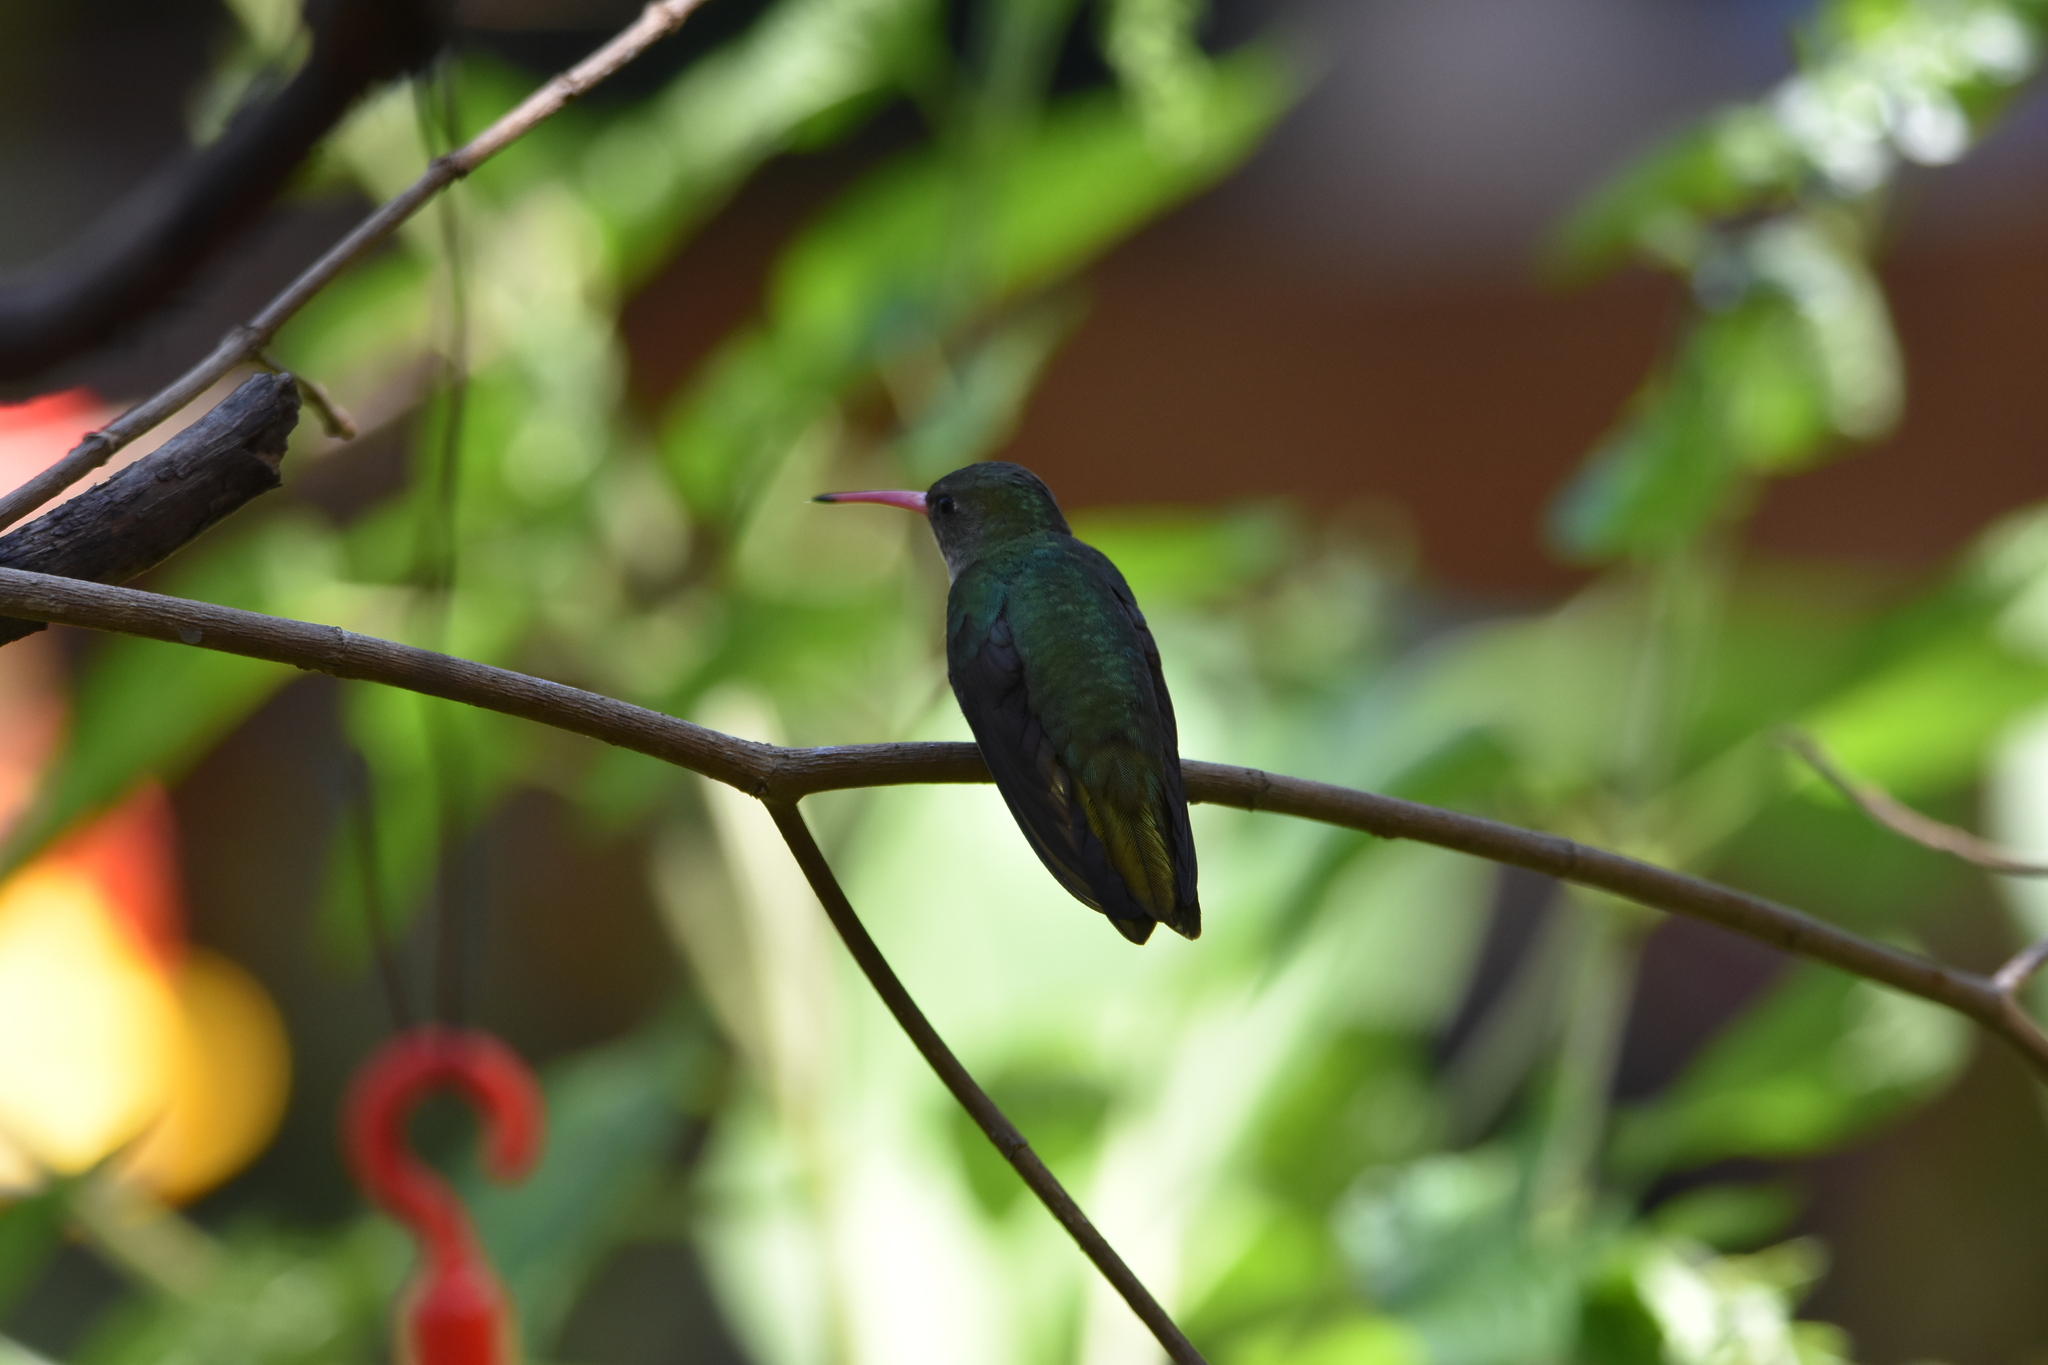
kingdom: Animalia
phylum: Chordata
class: Aves
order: Apodiformes
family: Trochilidae
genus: Hylocharis
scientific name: Hylocharis chrysura
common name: Gilded sapphire
